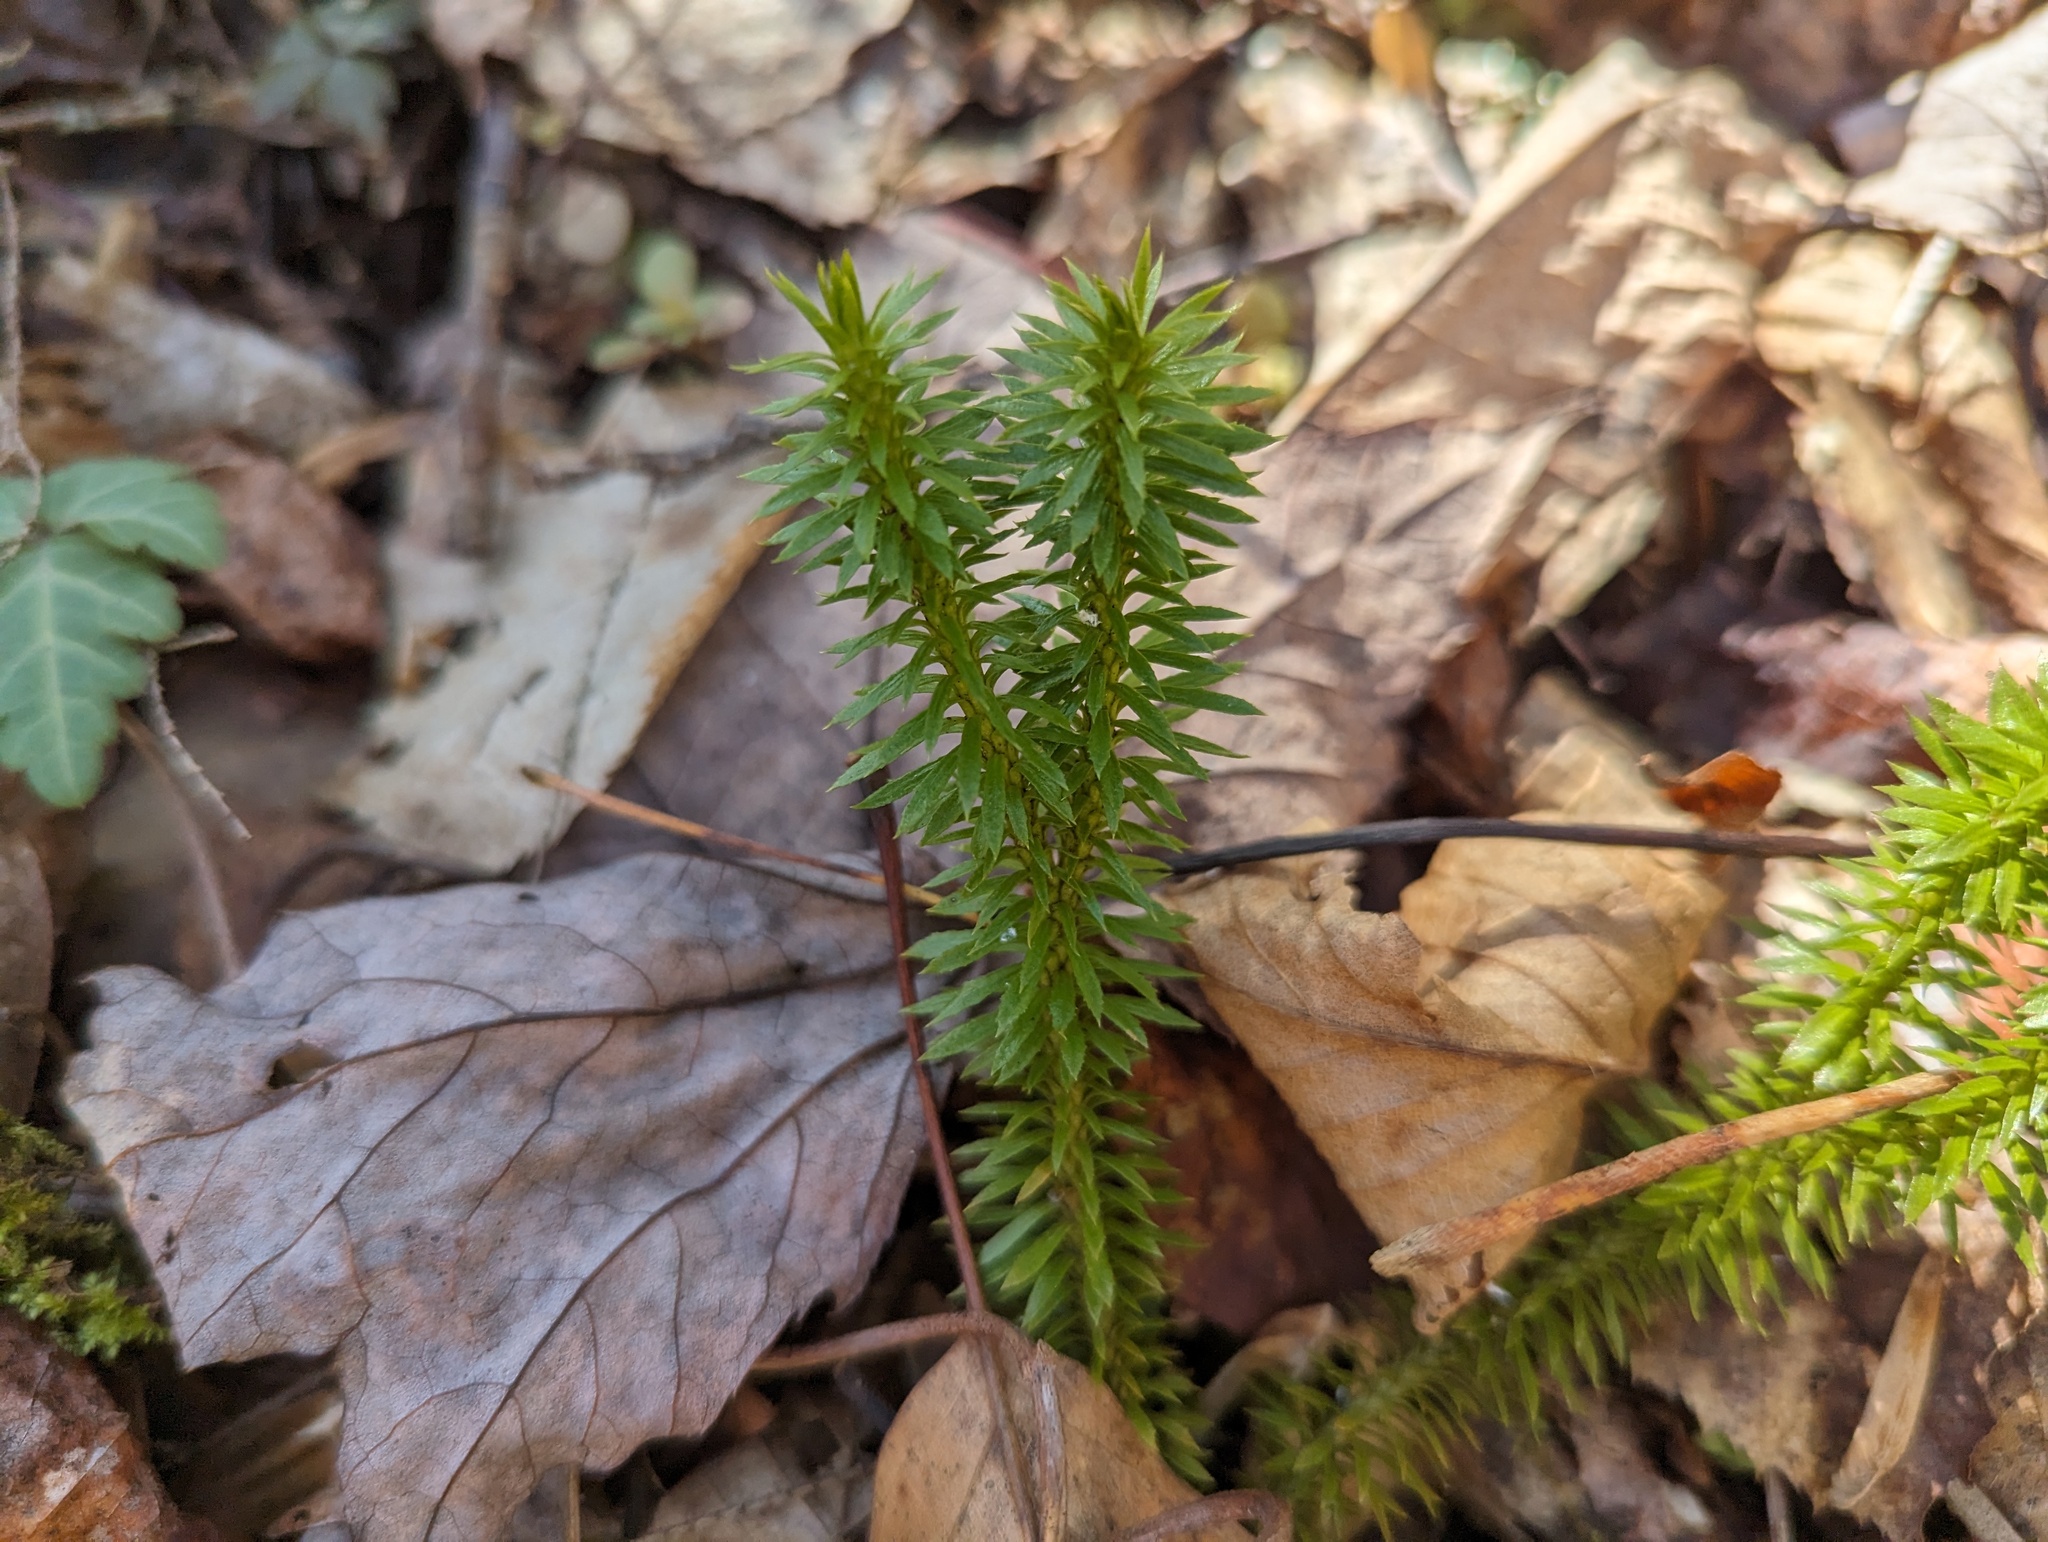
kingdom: Plantae
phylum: Tracheophyta
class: Lycopodiopsida
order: Lycopodiales
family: Lycopodiaceae
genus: Huperzia
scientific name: Huperzia lucidula
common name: Shining clubmoss
